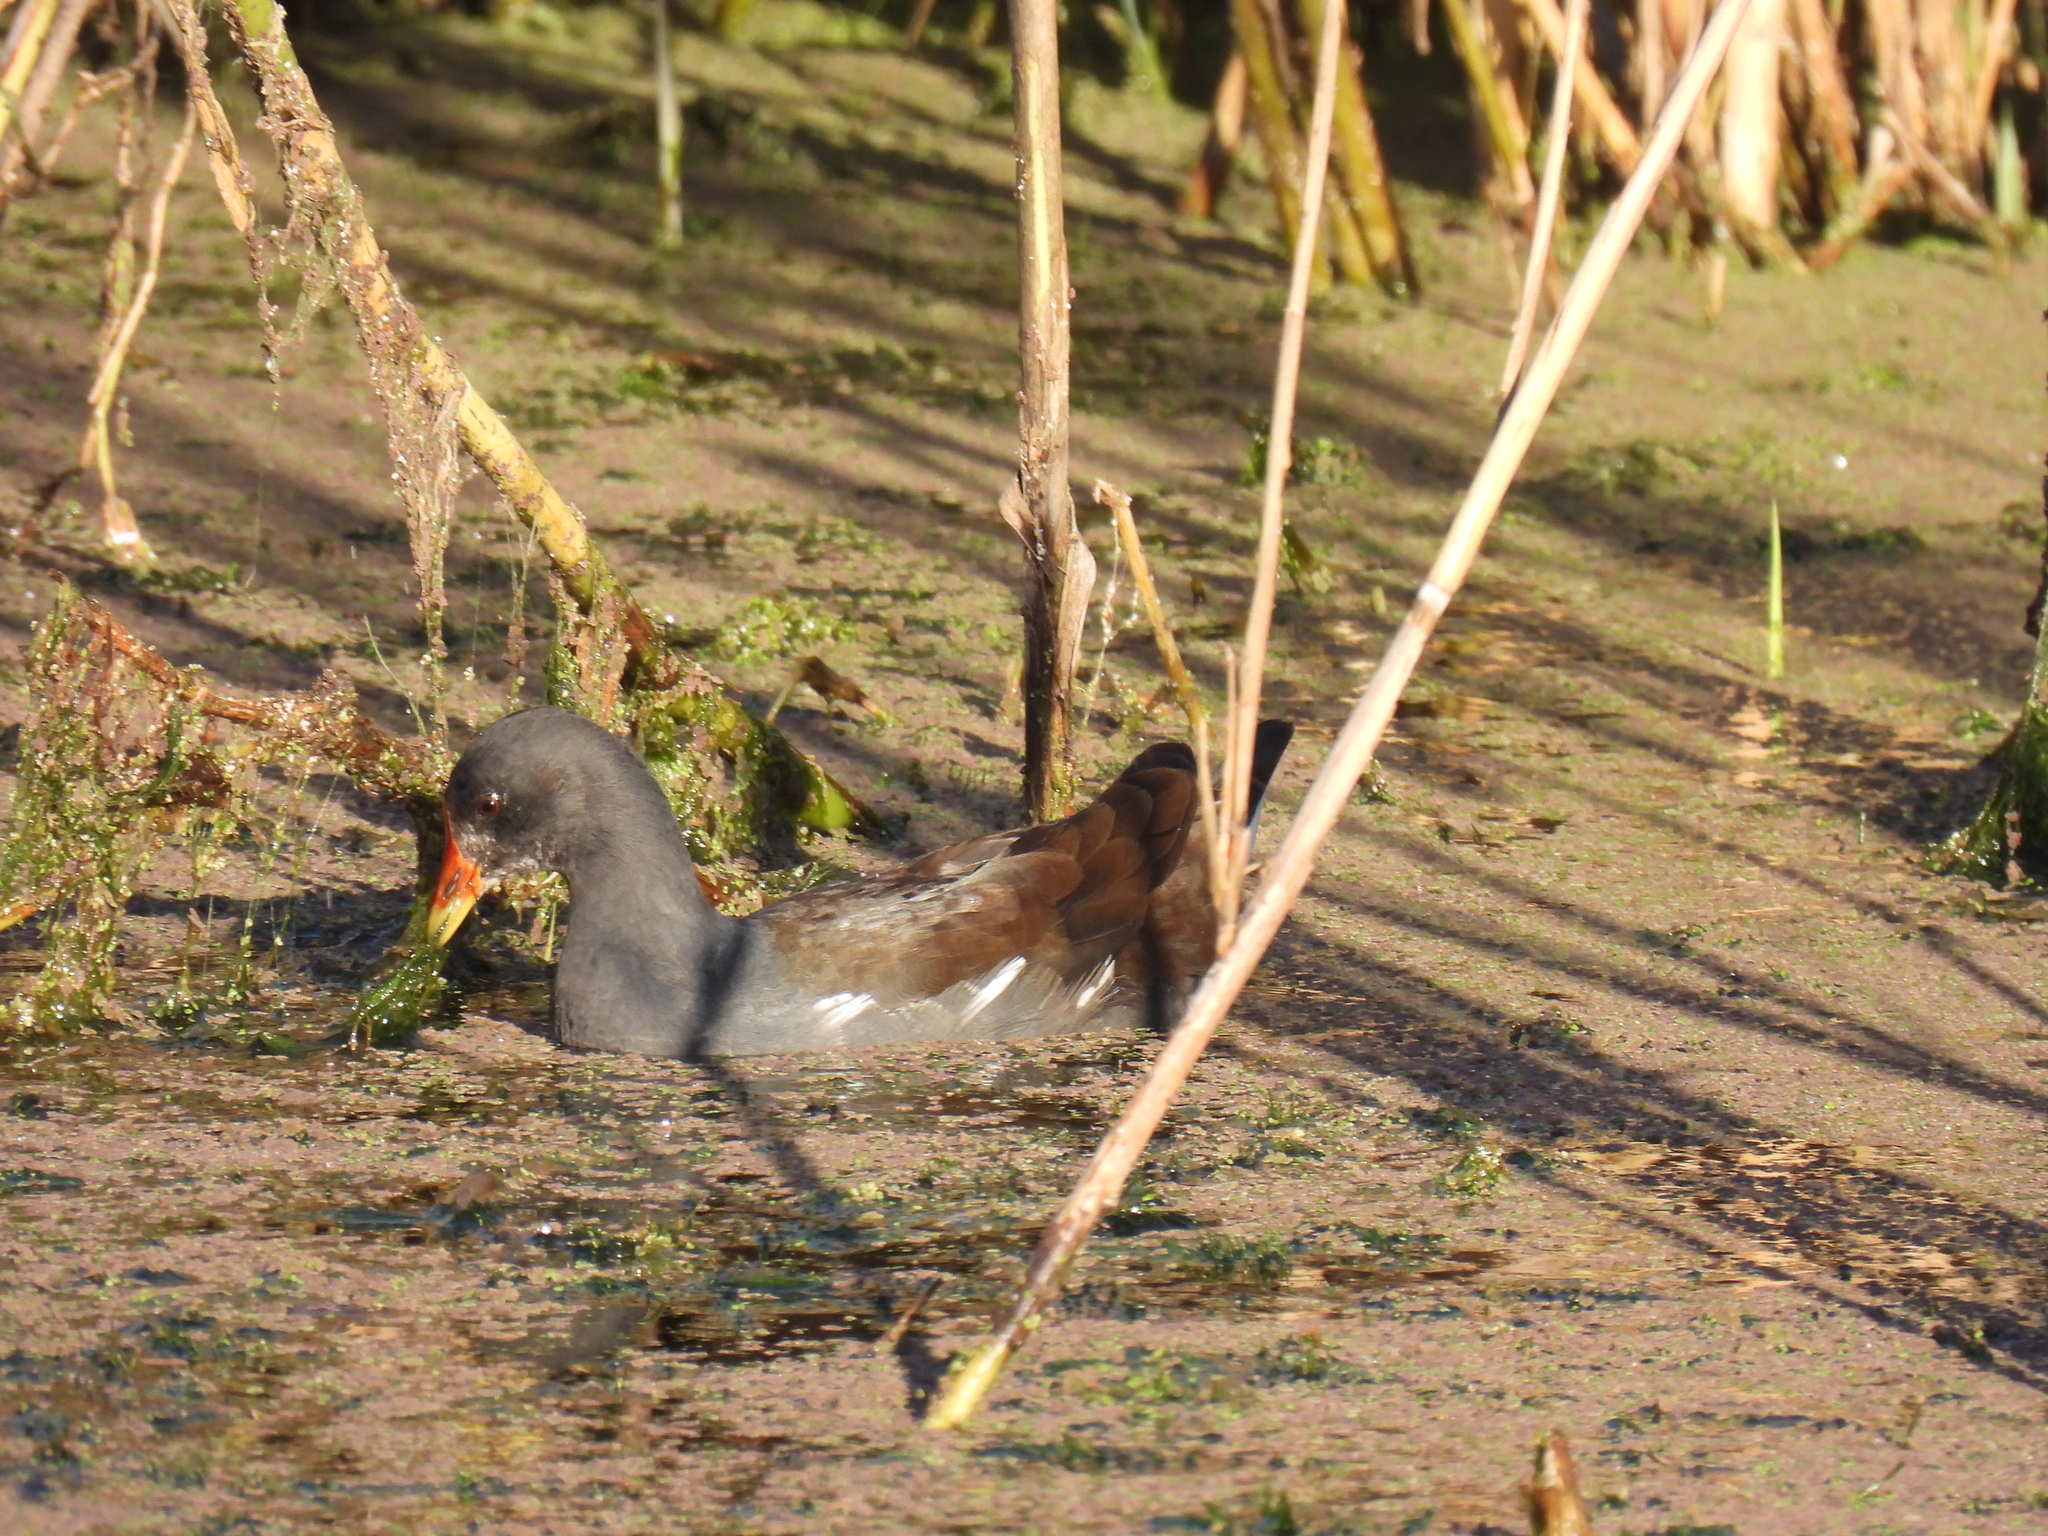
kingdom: Animalia
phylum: Chordata
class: Aves
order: Gruiformes
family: Rallidae
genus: Gallinula
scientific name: Gallinula chloropus
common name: Common moorhen
